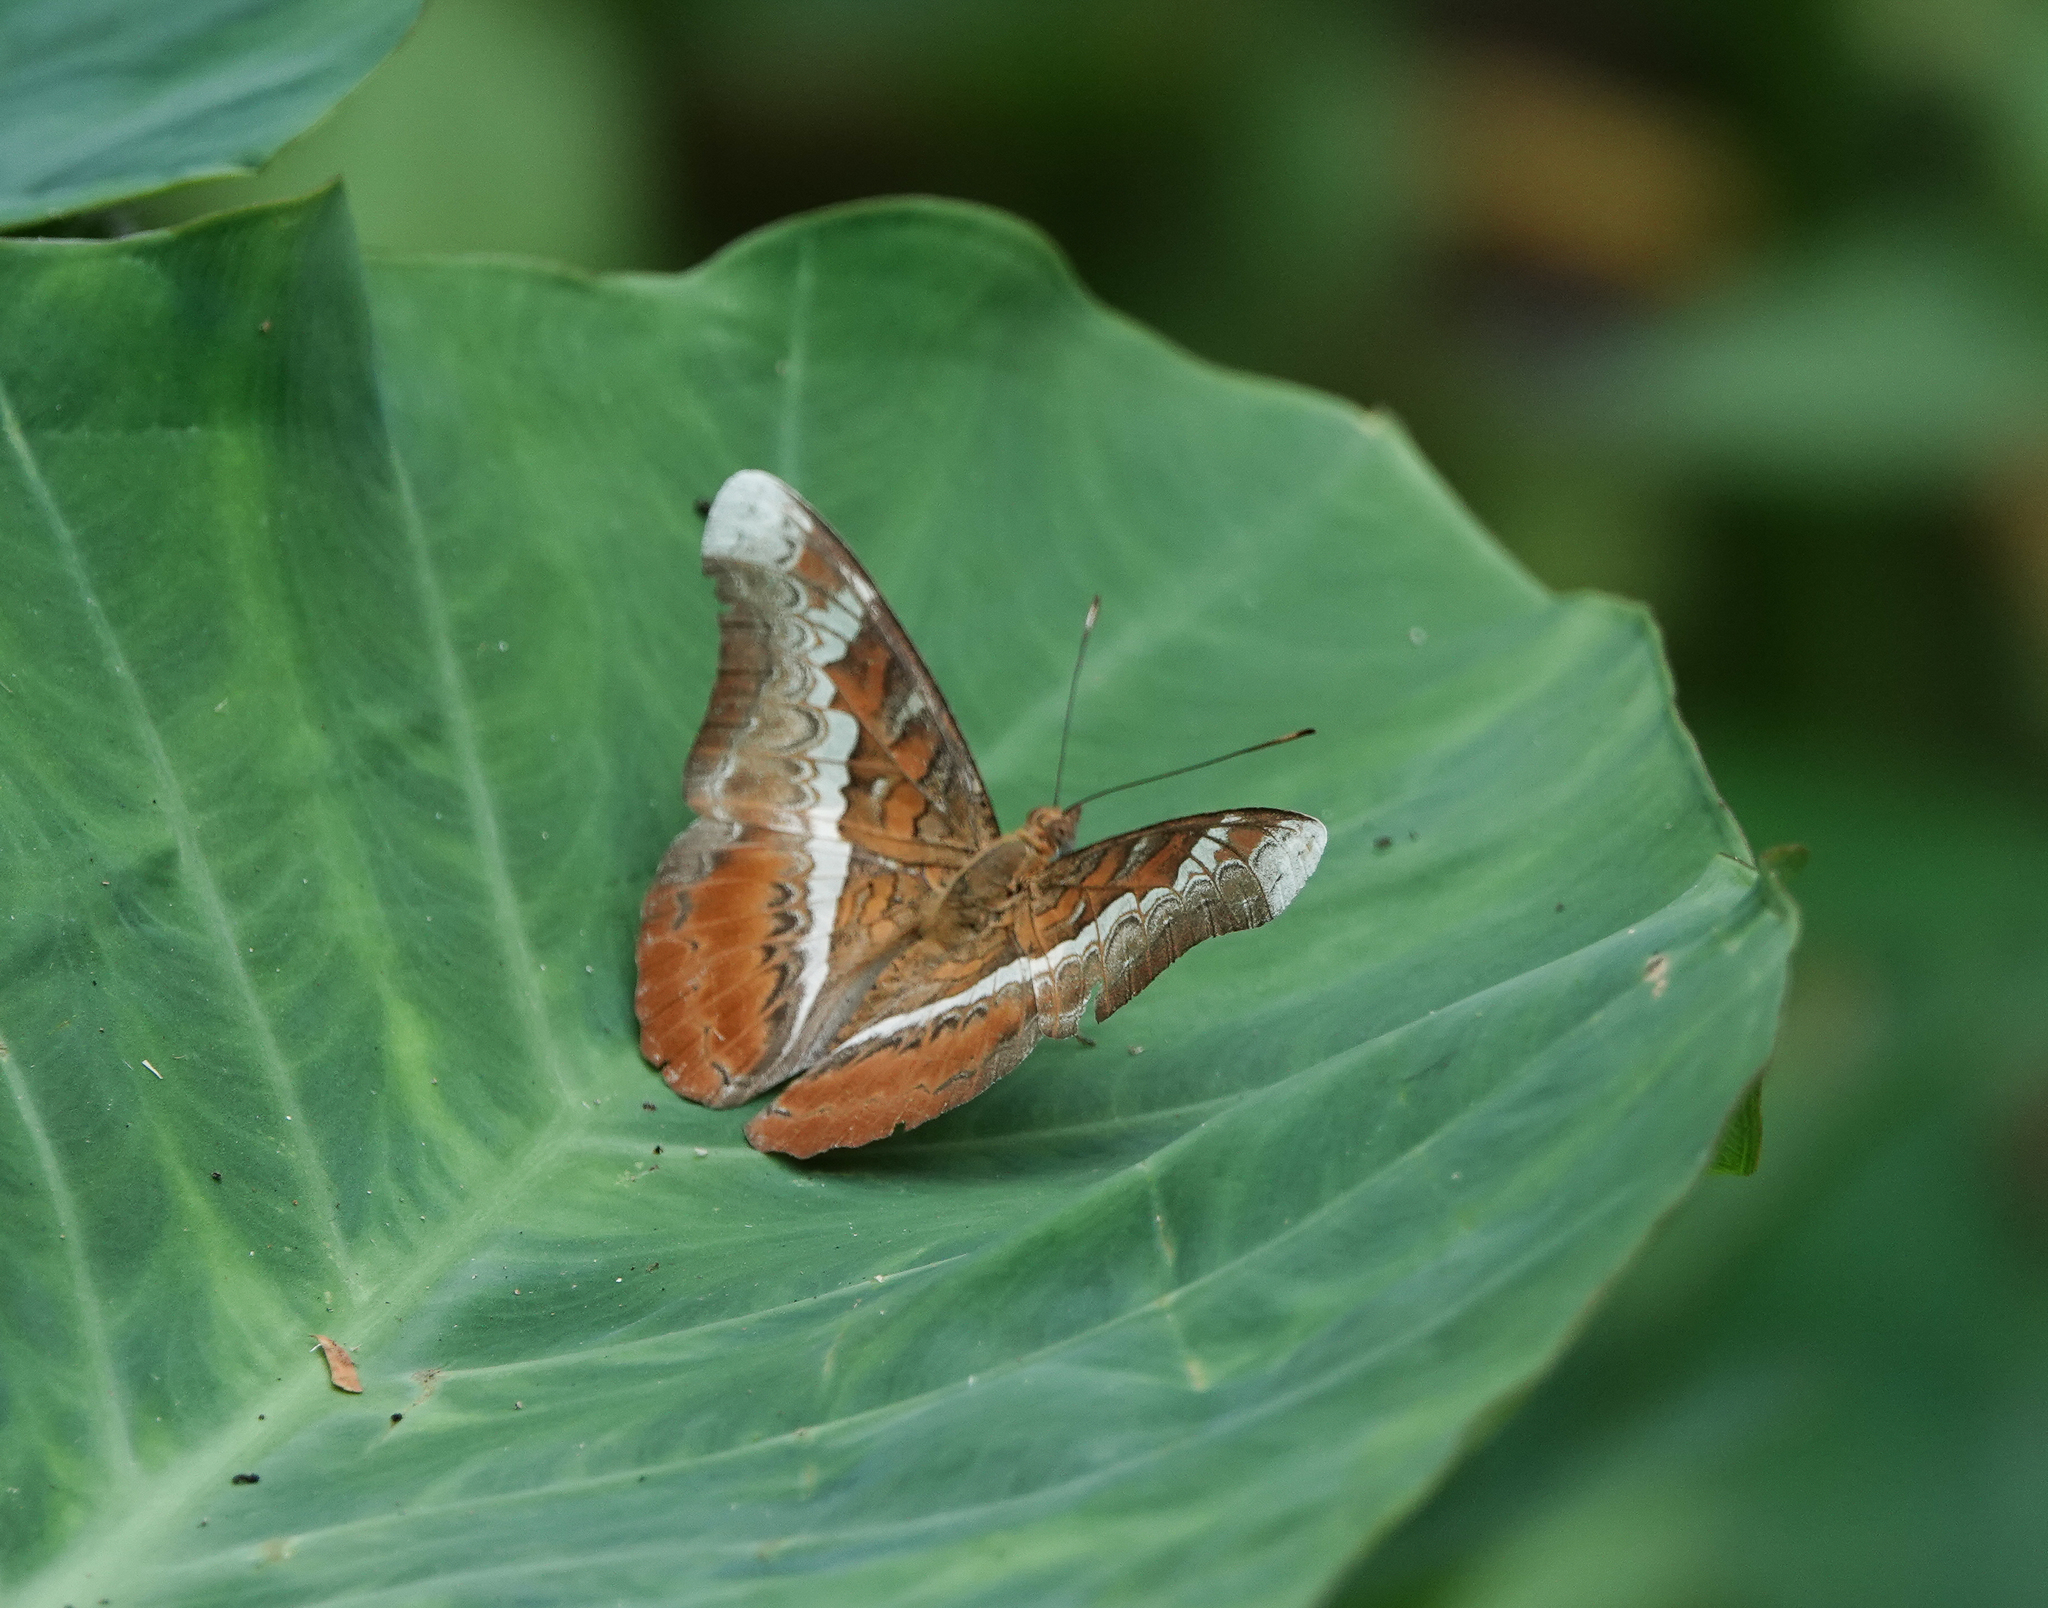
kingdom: Animalia
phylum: Arthropoda
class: Insecta
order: Lepidoptera
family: Nymphalidae
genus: Lebadea
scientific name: Lebadea martha
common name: Knight
